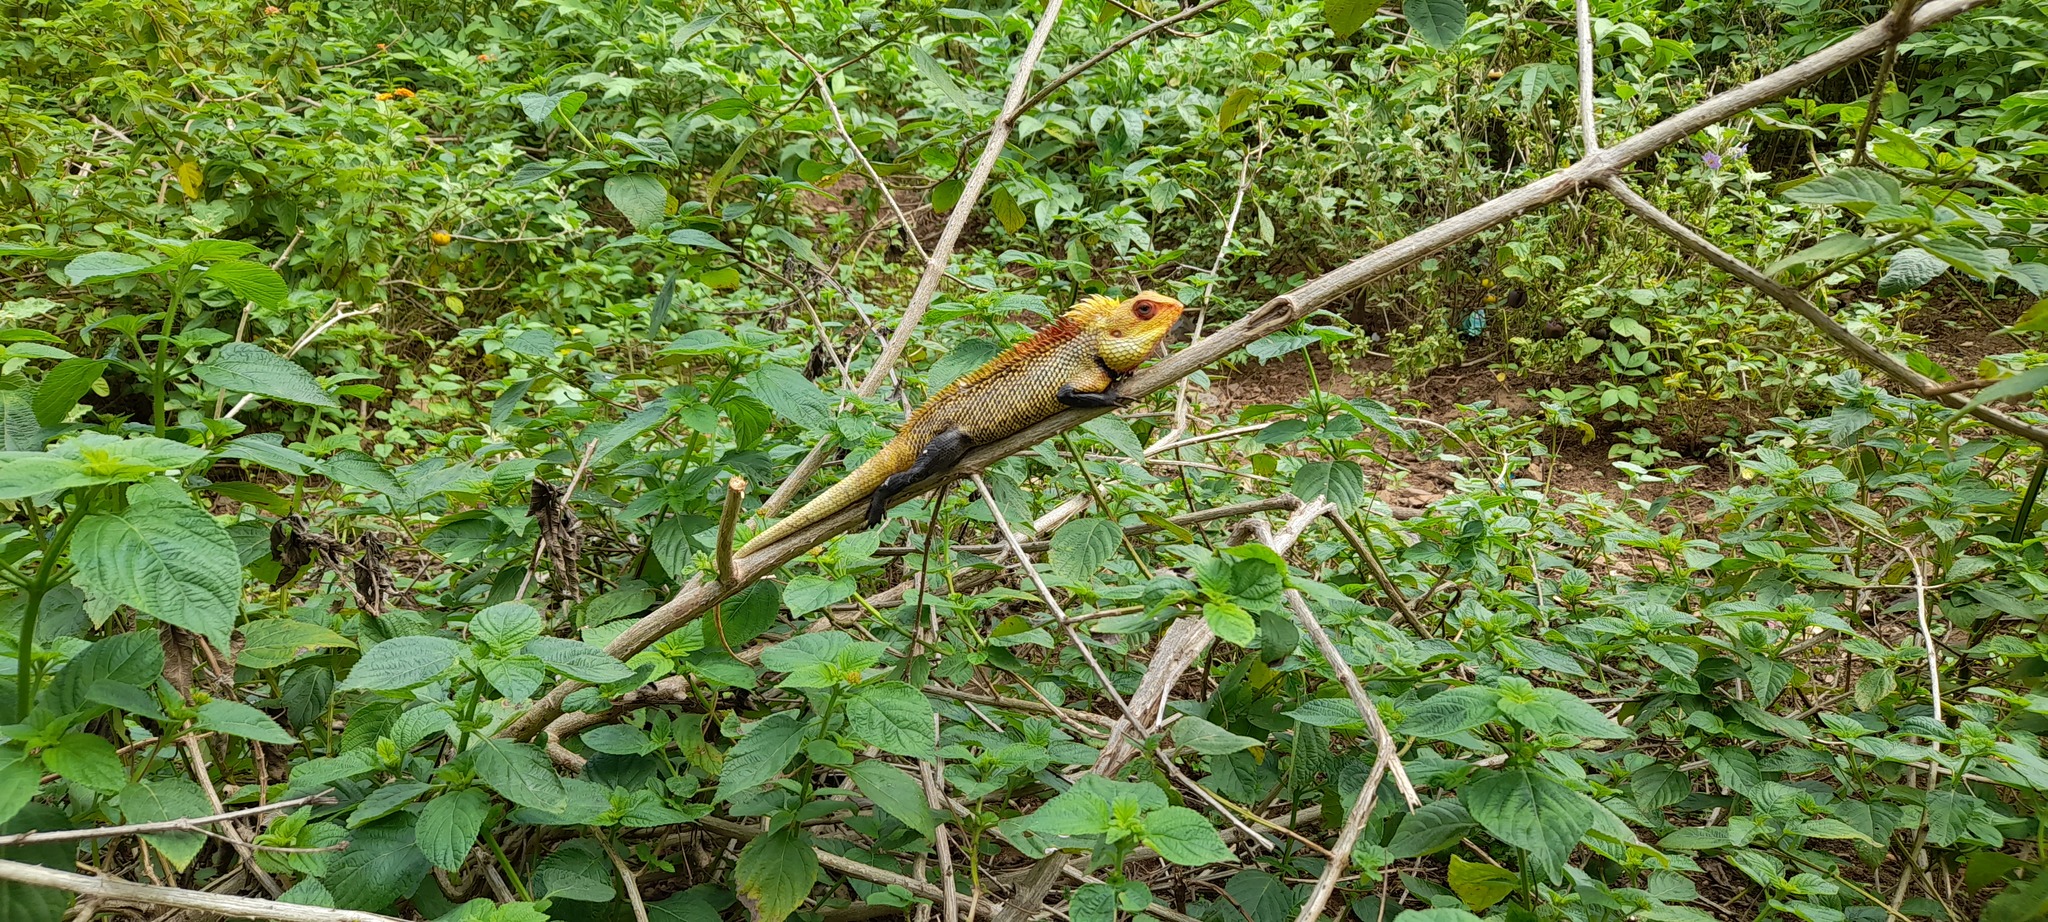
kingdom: Animalia
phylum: Chordata
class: Squamata
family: Agamidae
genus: Calotes
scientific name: Calotes versicolor
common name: Oriental garden lizard
